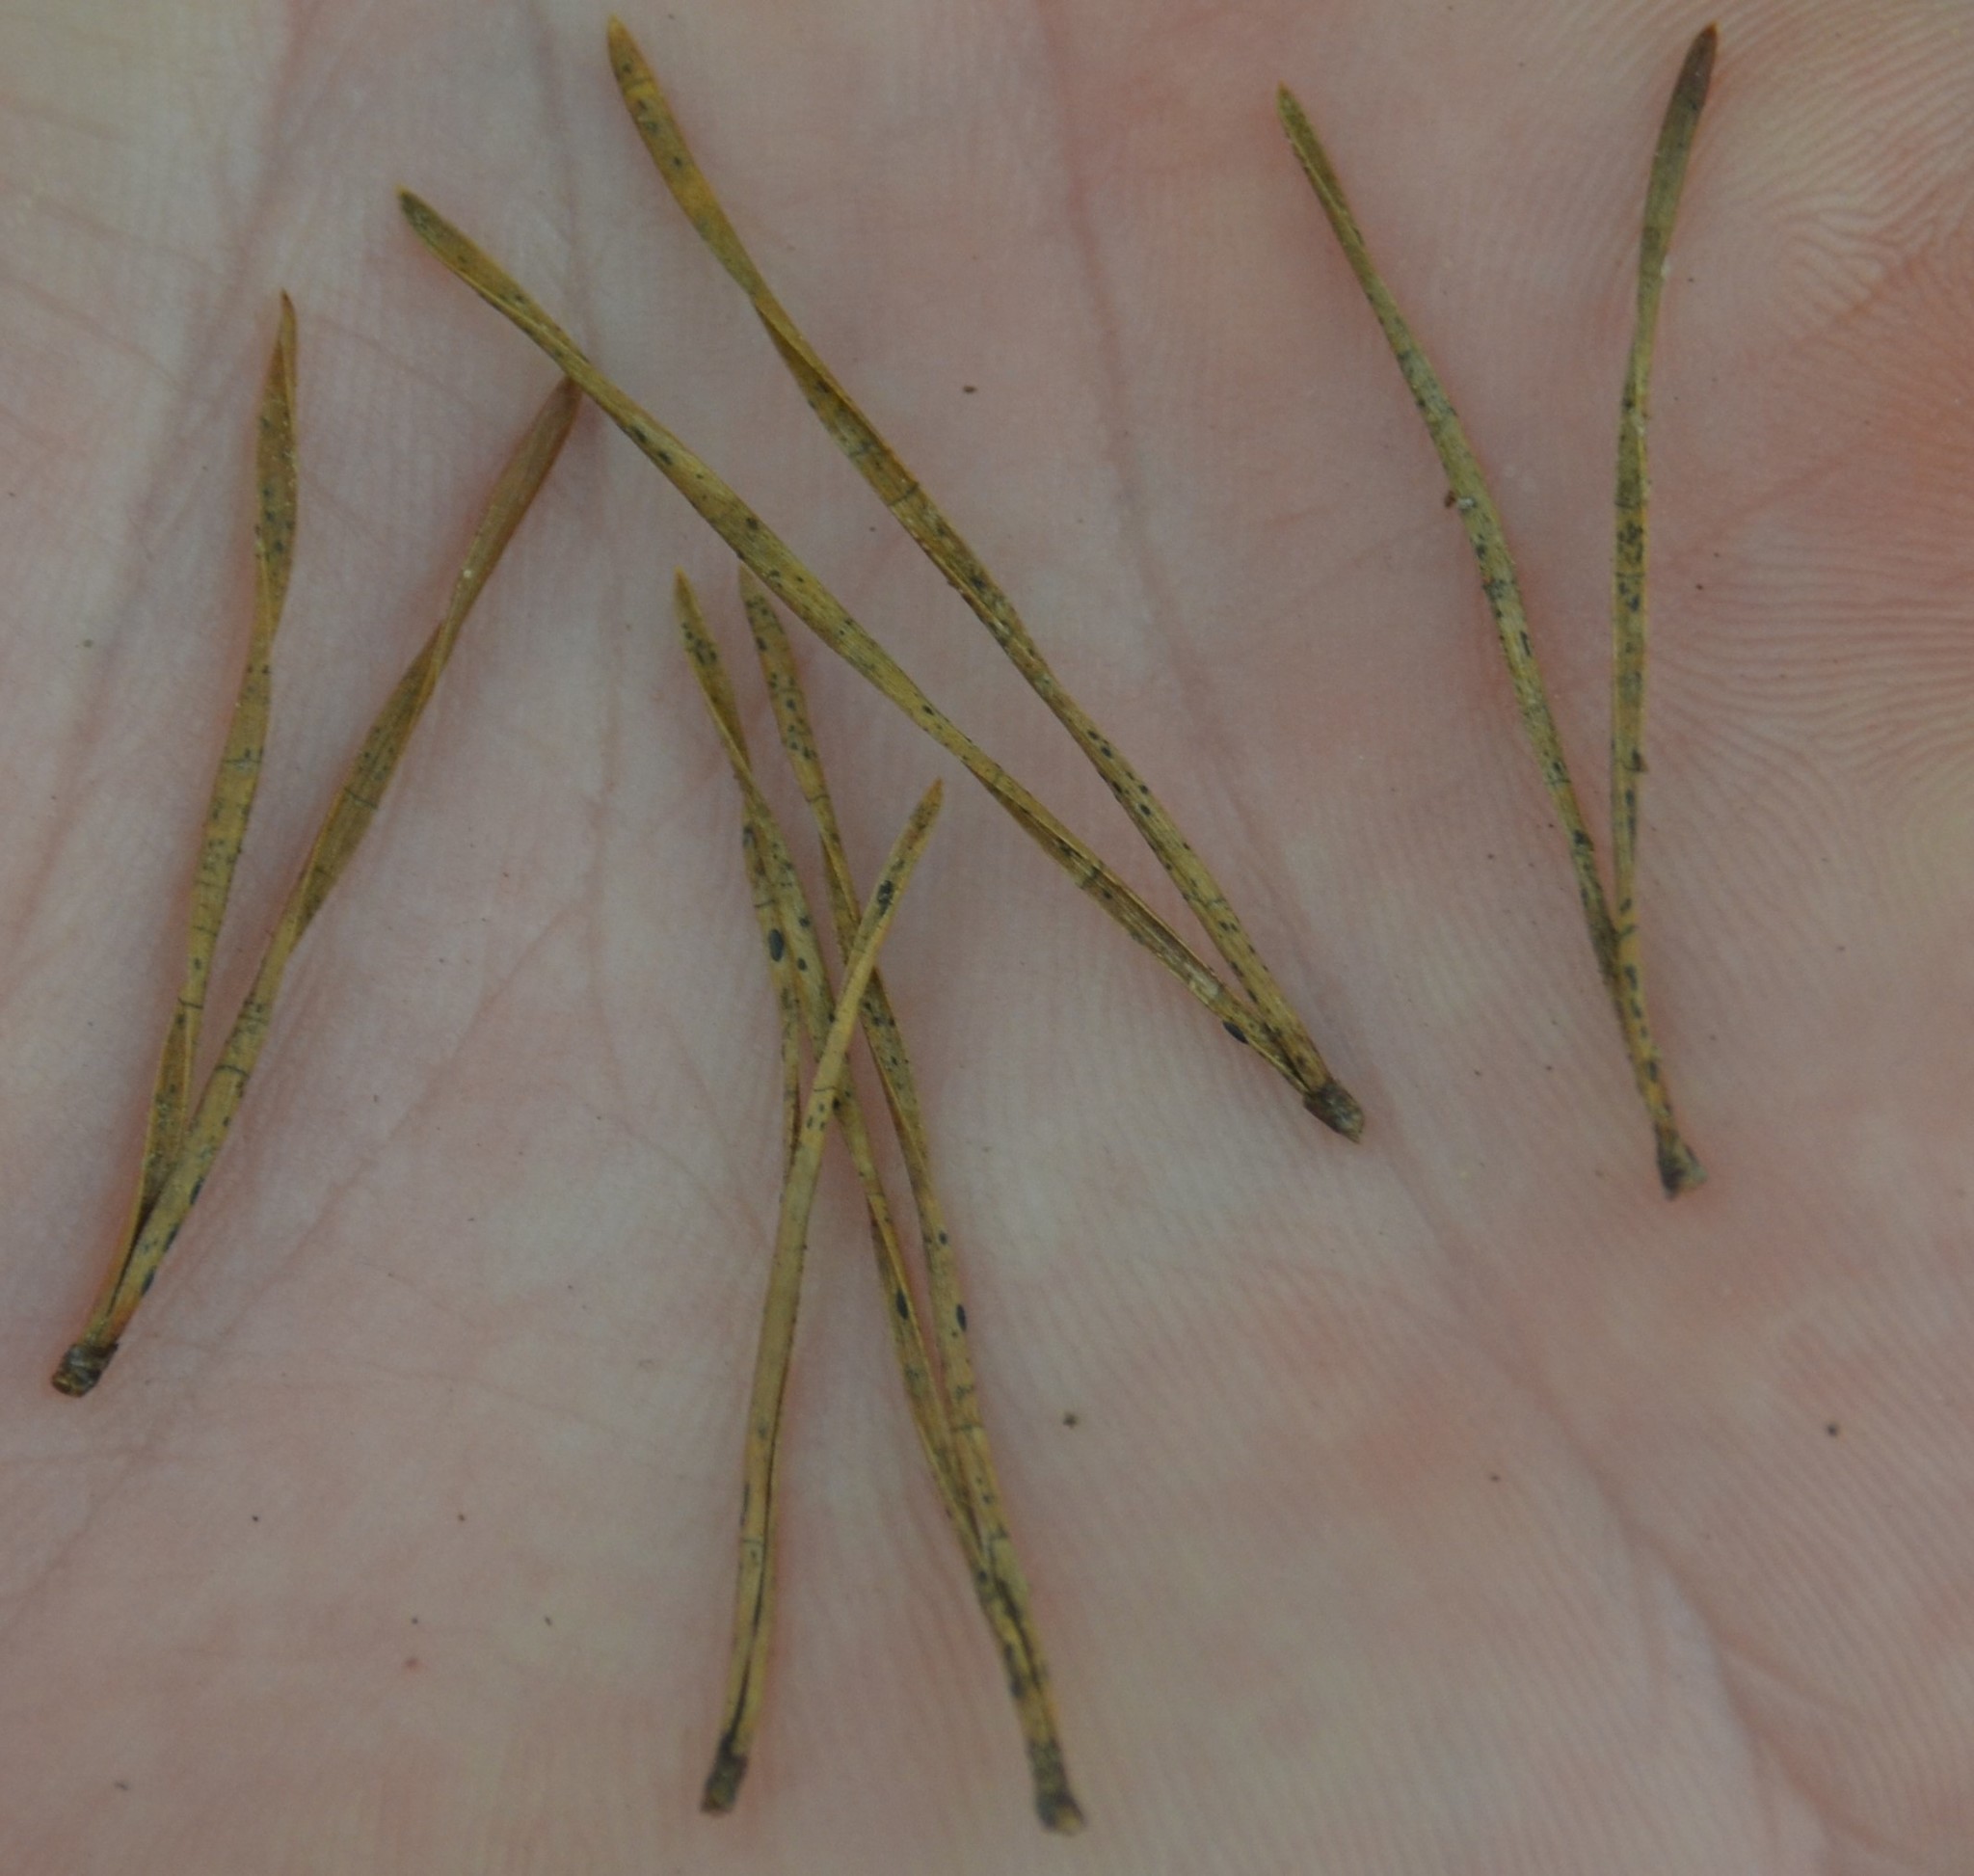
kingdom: Plantae
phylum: Tracheophyta
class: Pinopsida
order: Pinales
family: Pinaceae
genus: Pinus
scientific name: Pinus virginiana
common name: Scrub pine
